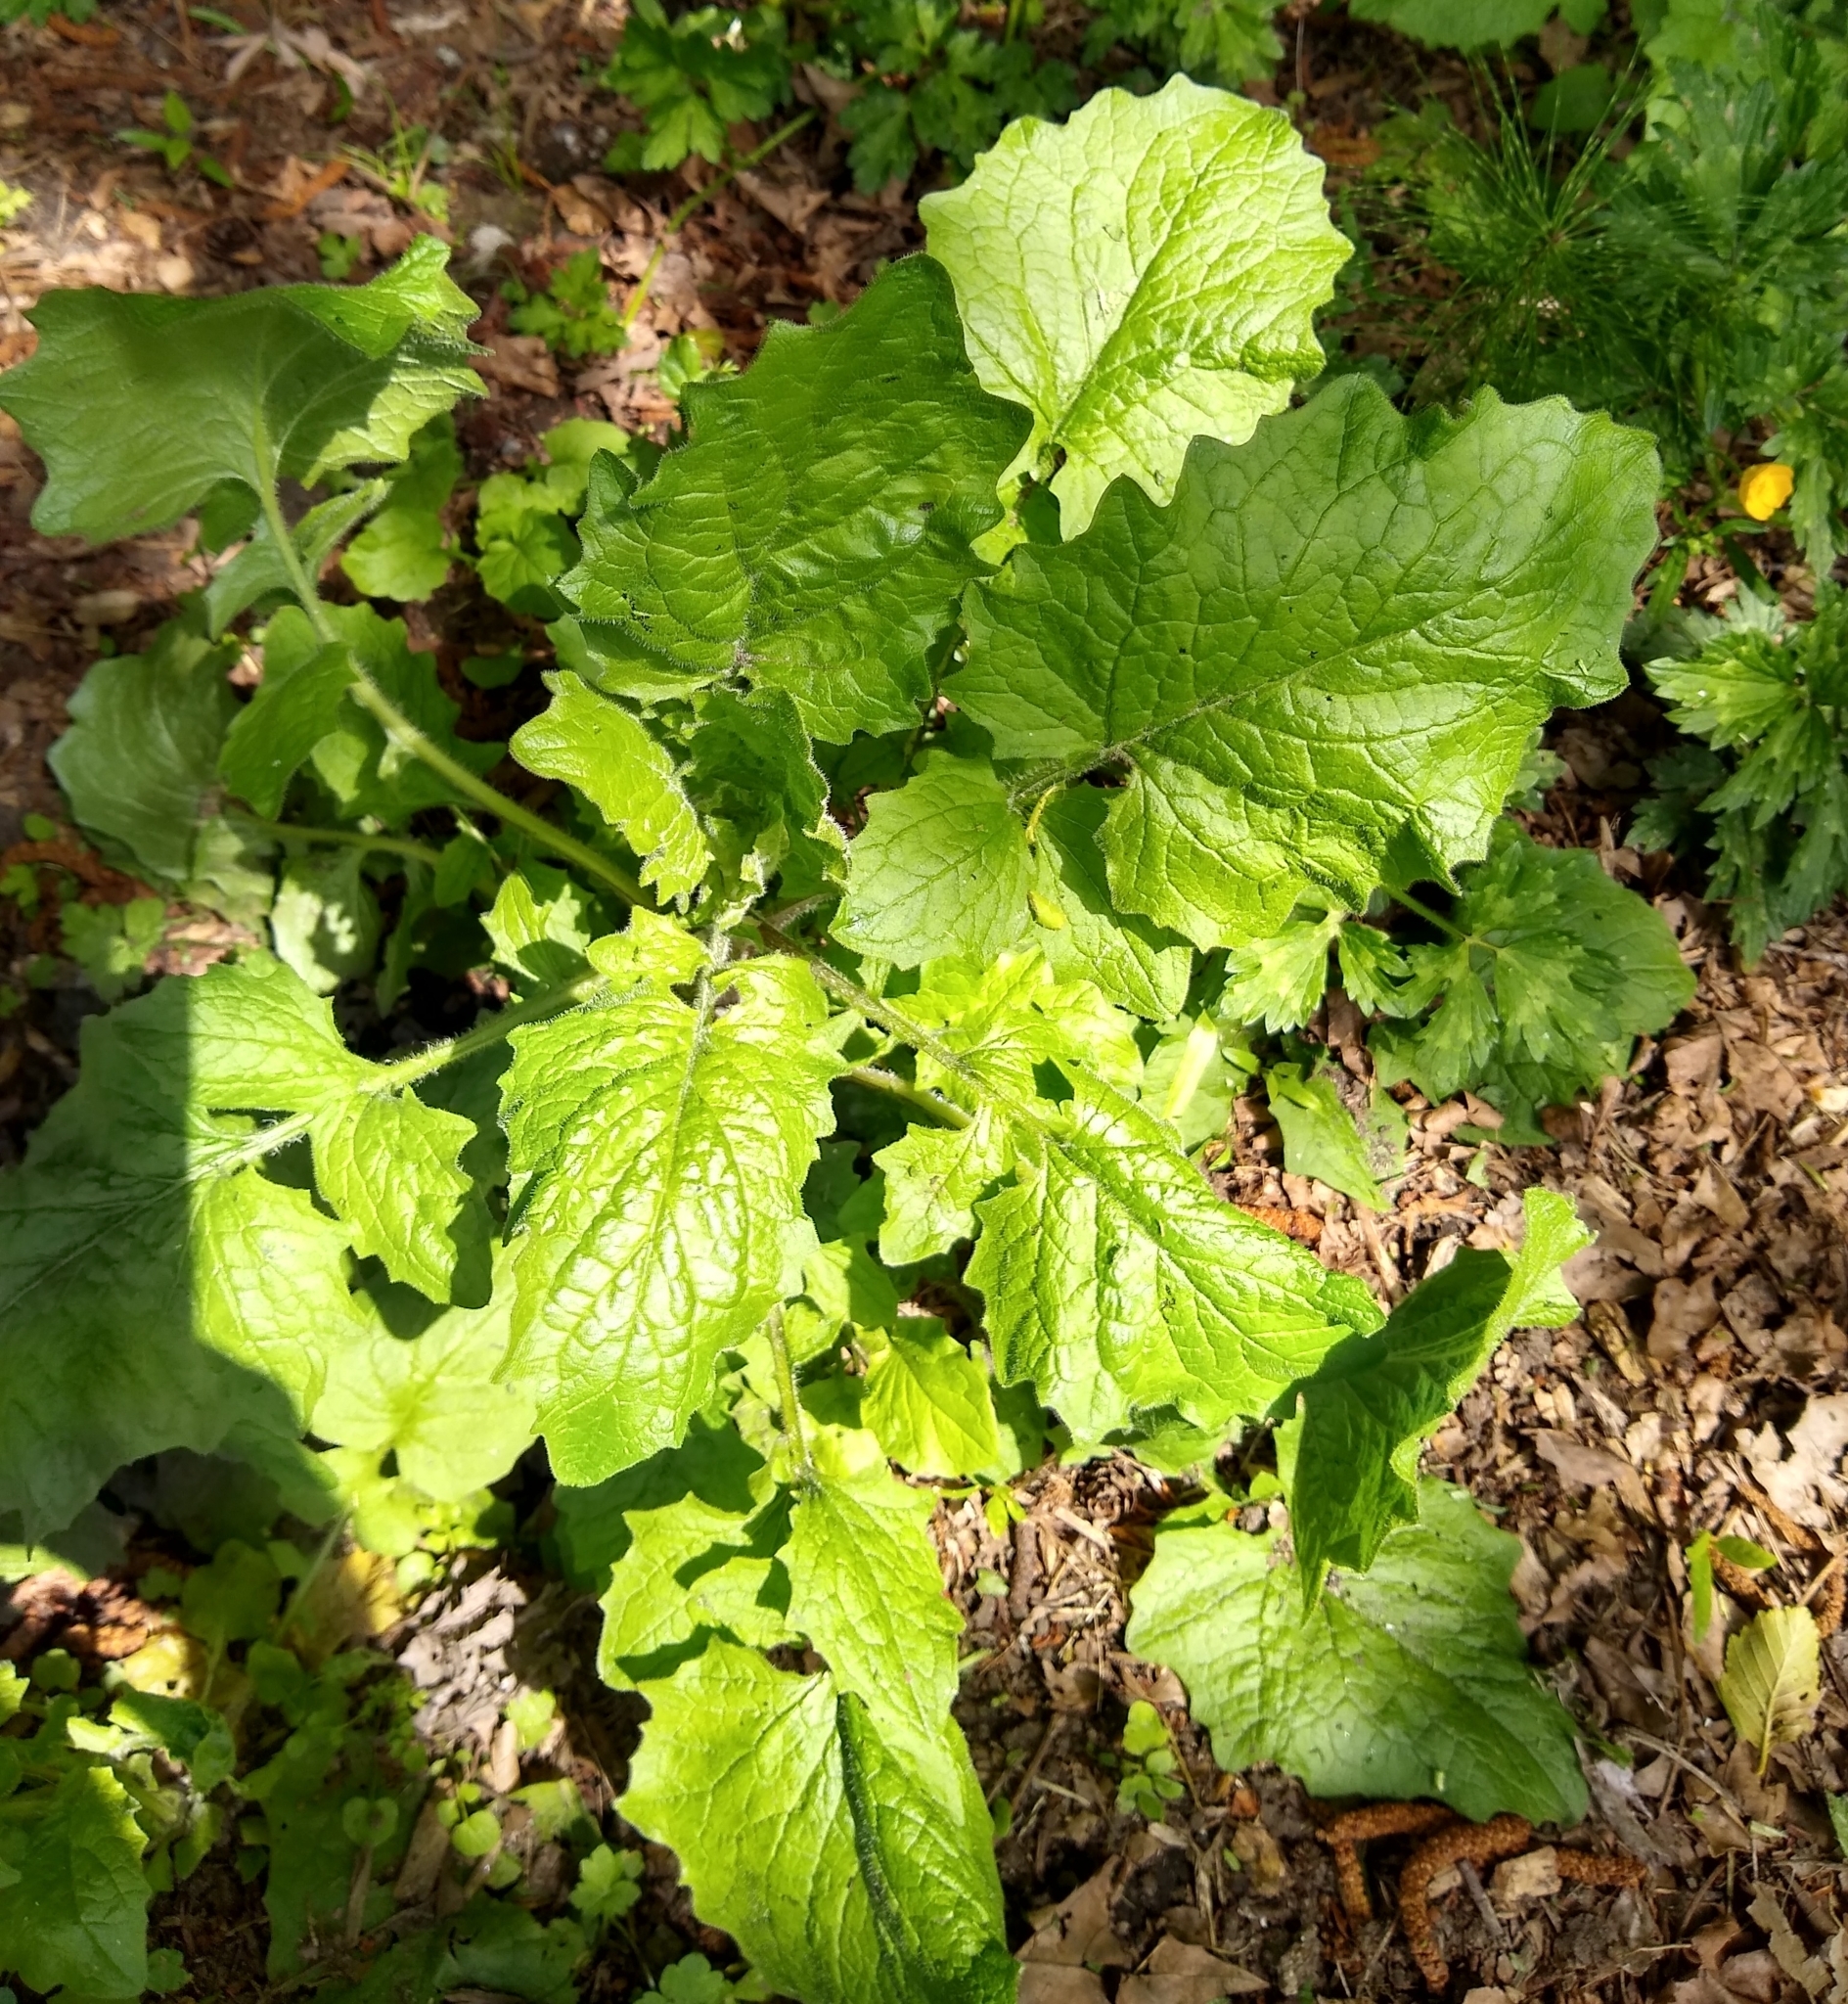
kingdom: Plantae
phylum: Tracheophyta
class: Magnoliopsida
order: Asterales
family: Asteraceae
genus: Lapsana
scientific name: Lapsana communis
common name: Nipplewort
